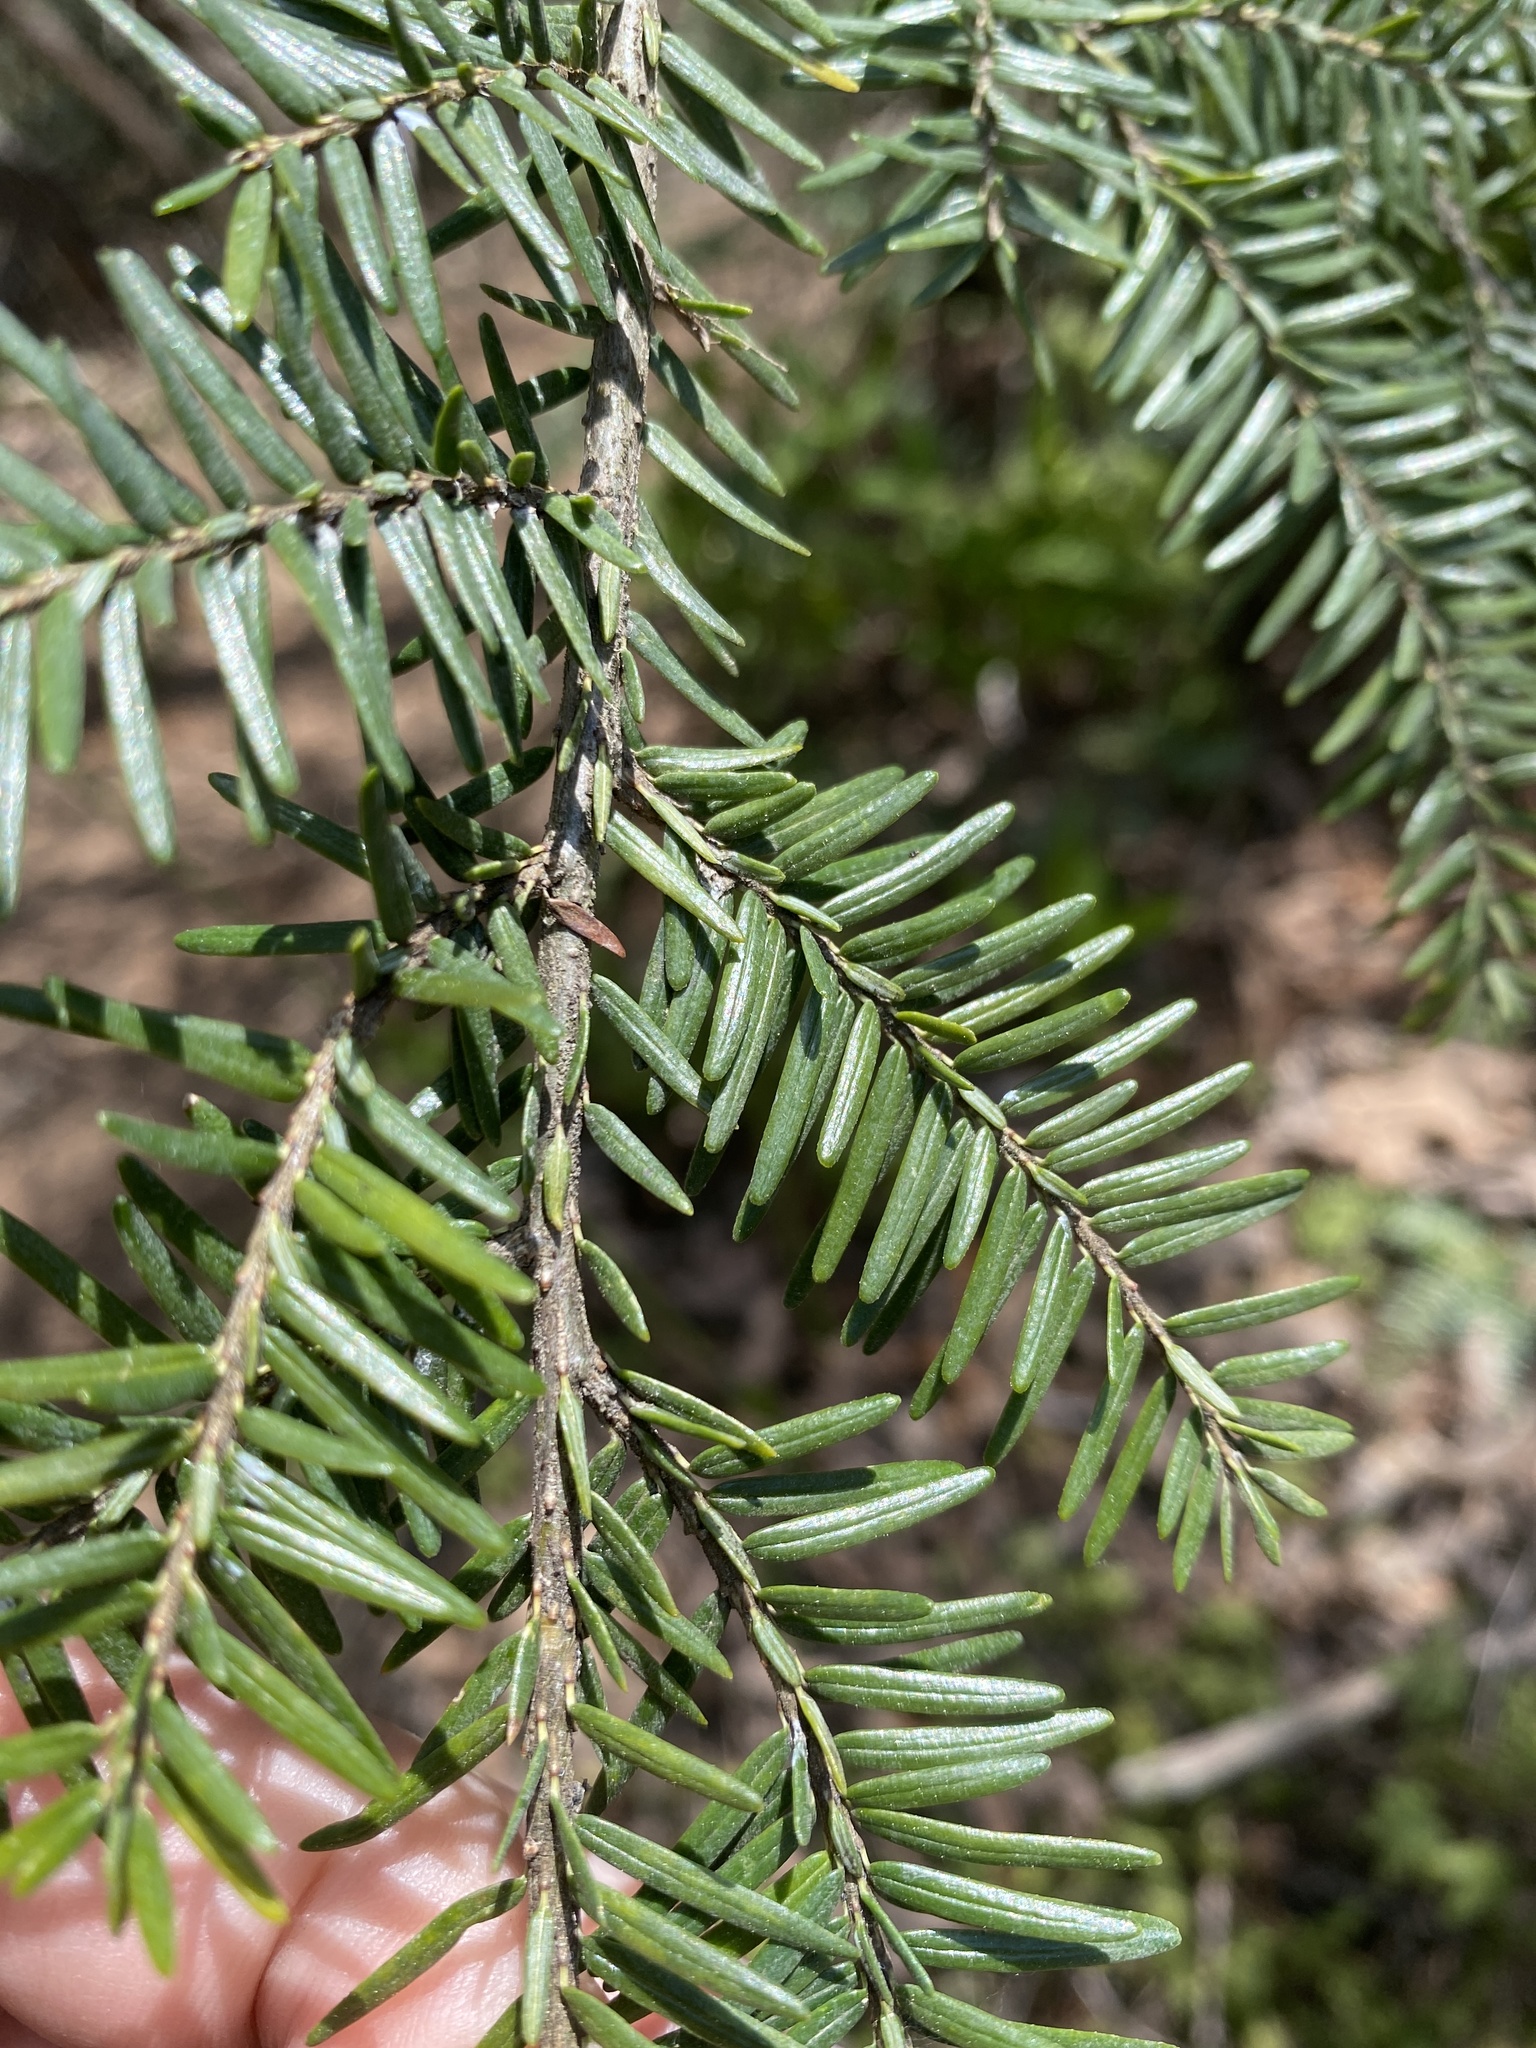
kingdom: Plantae
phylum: Tracheophyta
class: Pinopsida
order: Pinales
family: Pinaceae
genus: Tsuga
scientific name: Tsuga canadensis
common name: Eastern hemlock
